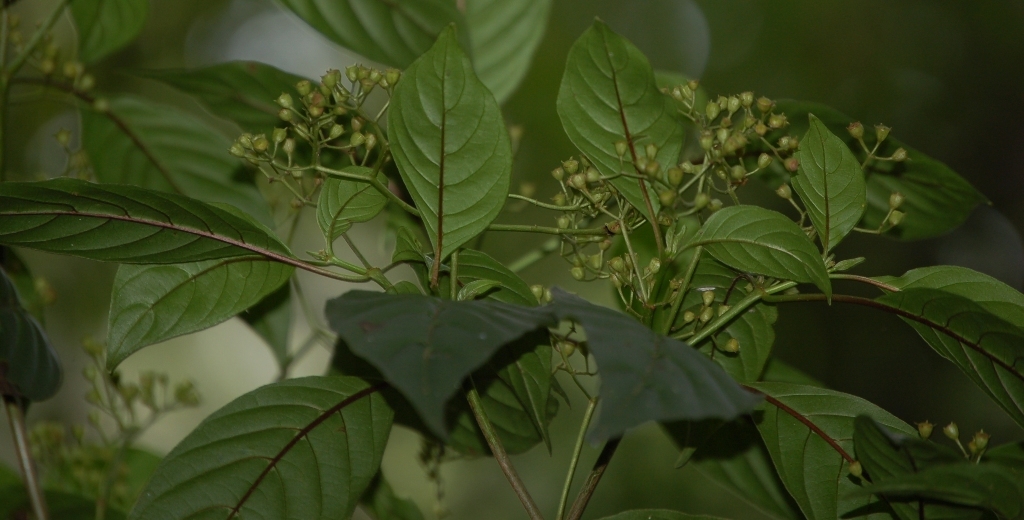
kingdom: Plantae
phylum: Tracheophyta
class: Magnoliopsida
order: Gentianales
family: Rubiaceae
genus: Deppea
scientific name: Deppea grandiflora
